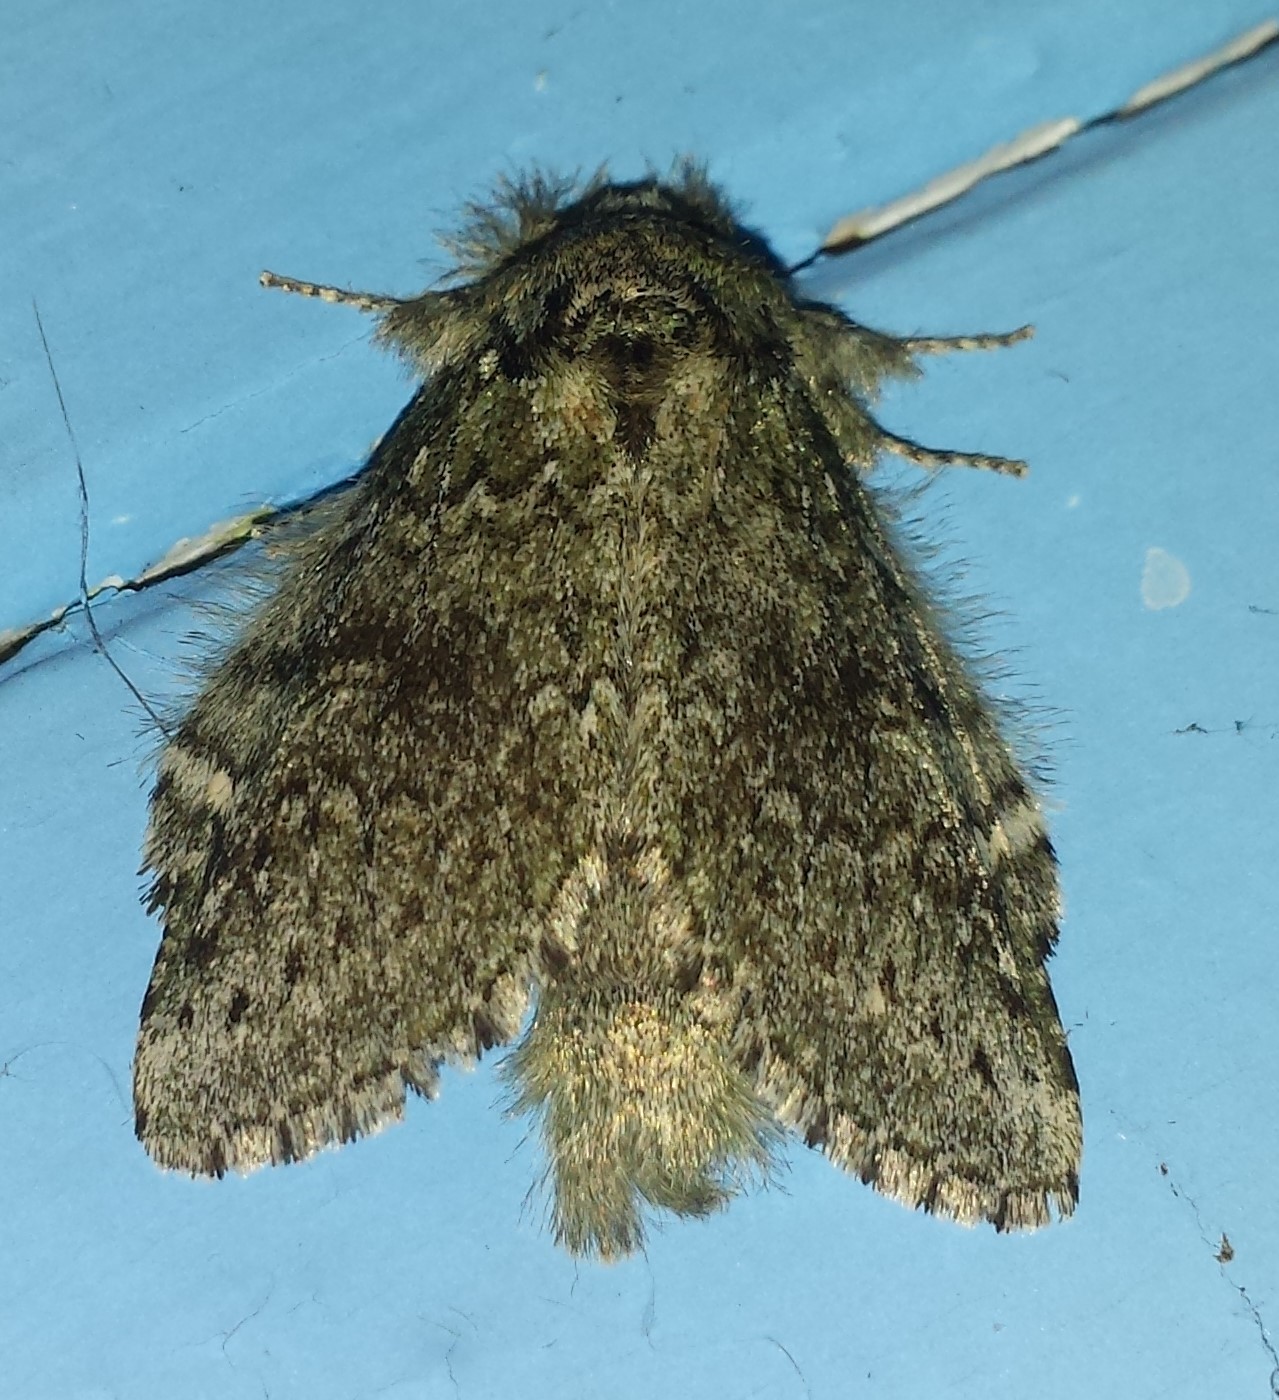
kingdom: Animalia
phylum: Arthropoda
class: Insecta
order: Lepidoptera
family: Notodontidae
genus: Disphragis
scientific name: Disphragis Cecrita guttivitta
